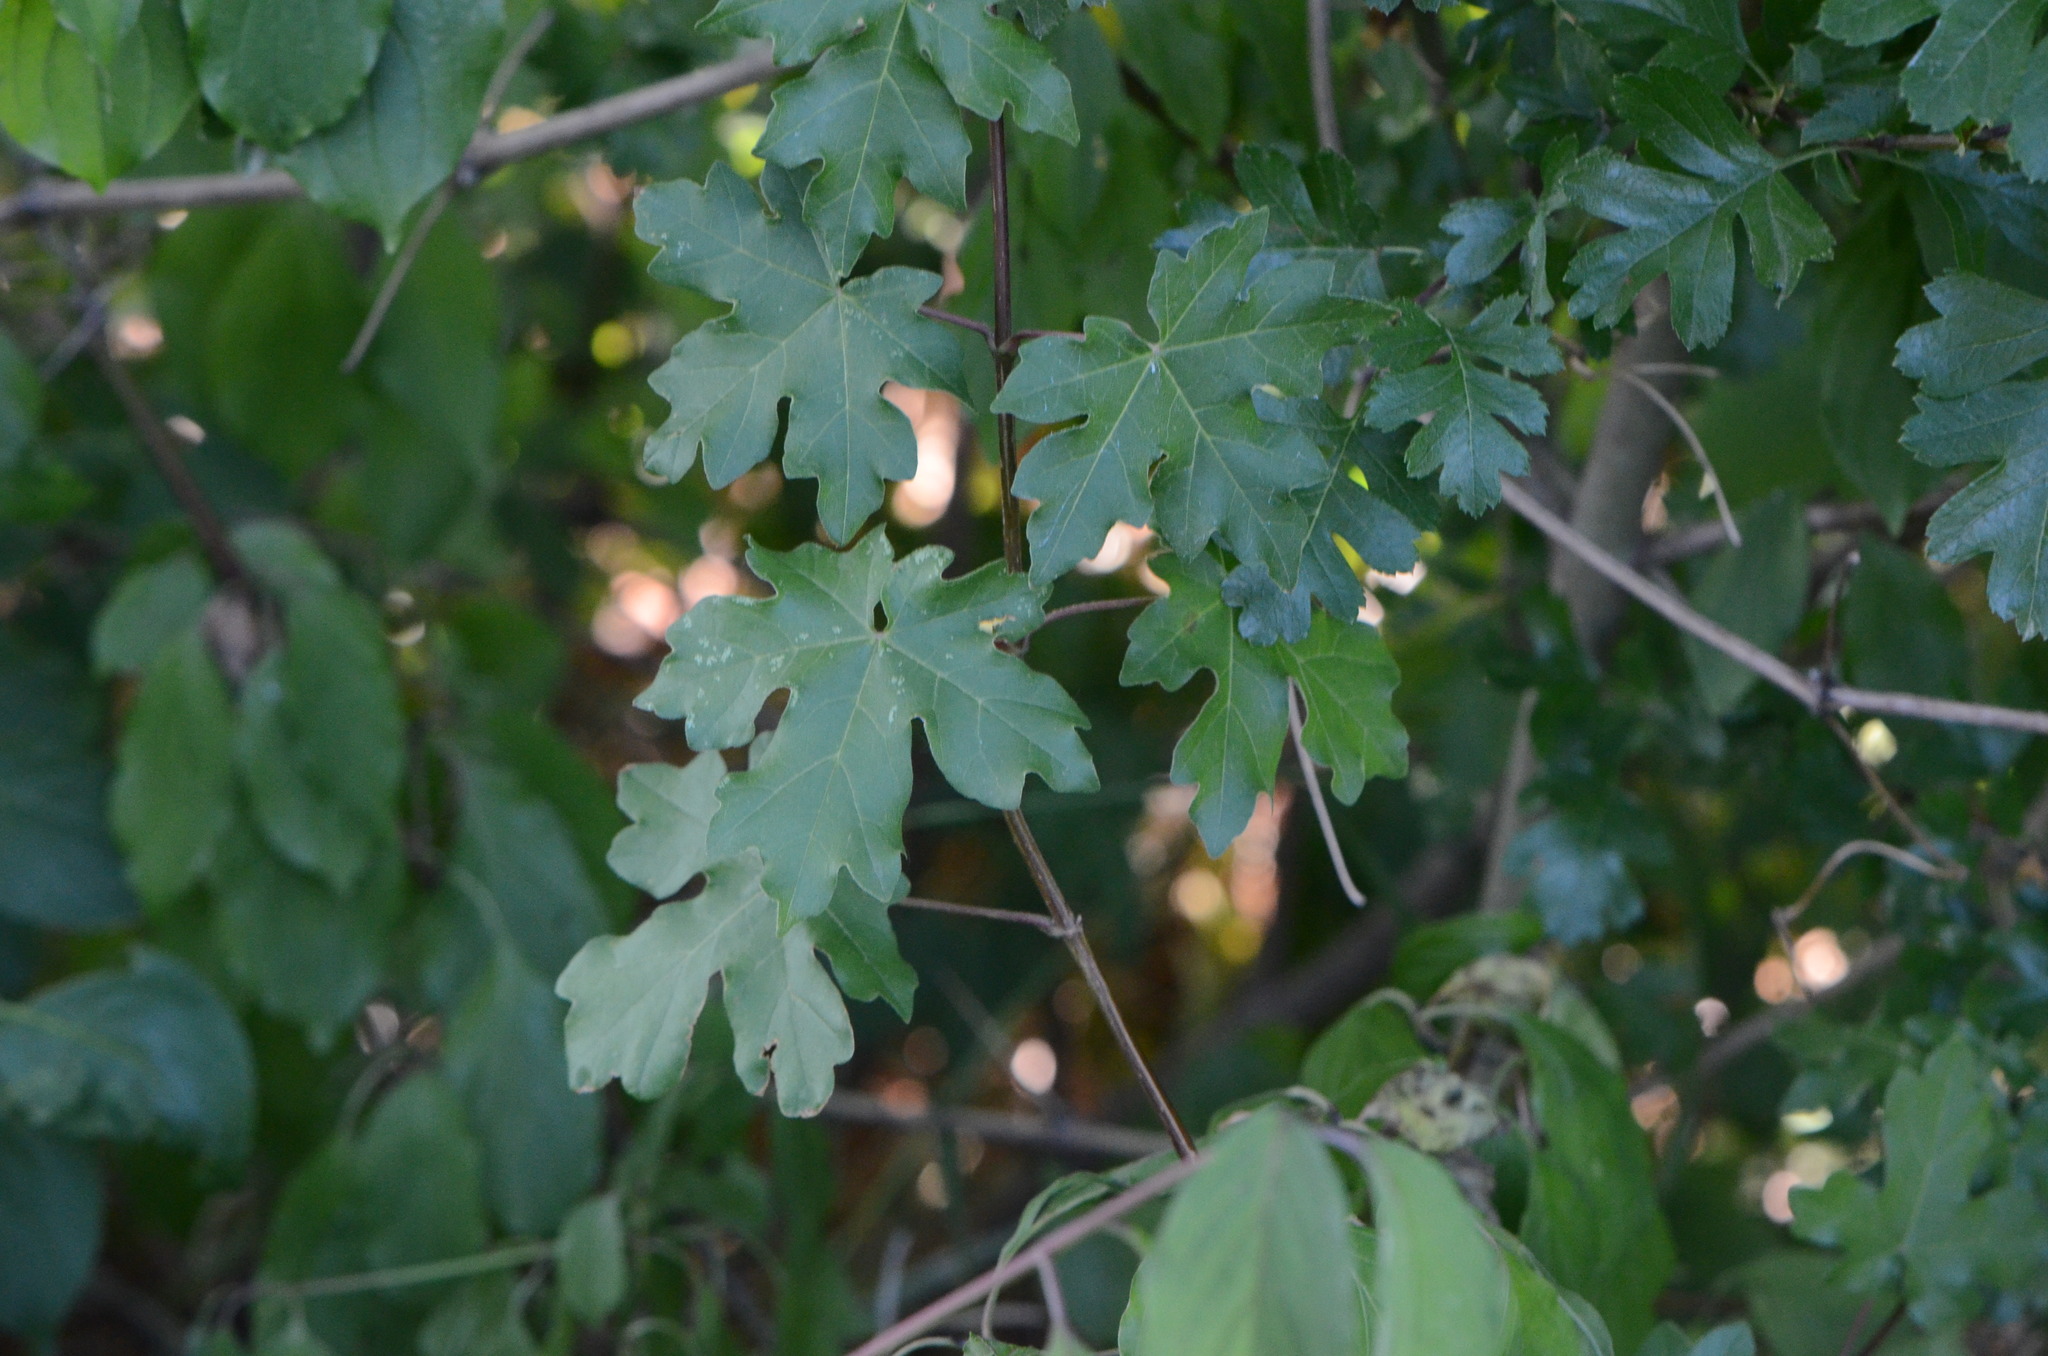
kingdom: Plantae
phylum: Tracheophyta
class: Magnoliopsida
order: Sapindales
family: Sapindaceae
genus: Acer
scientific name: Acer campestre
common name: Field maple
